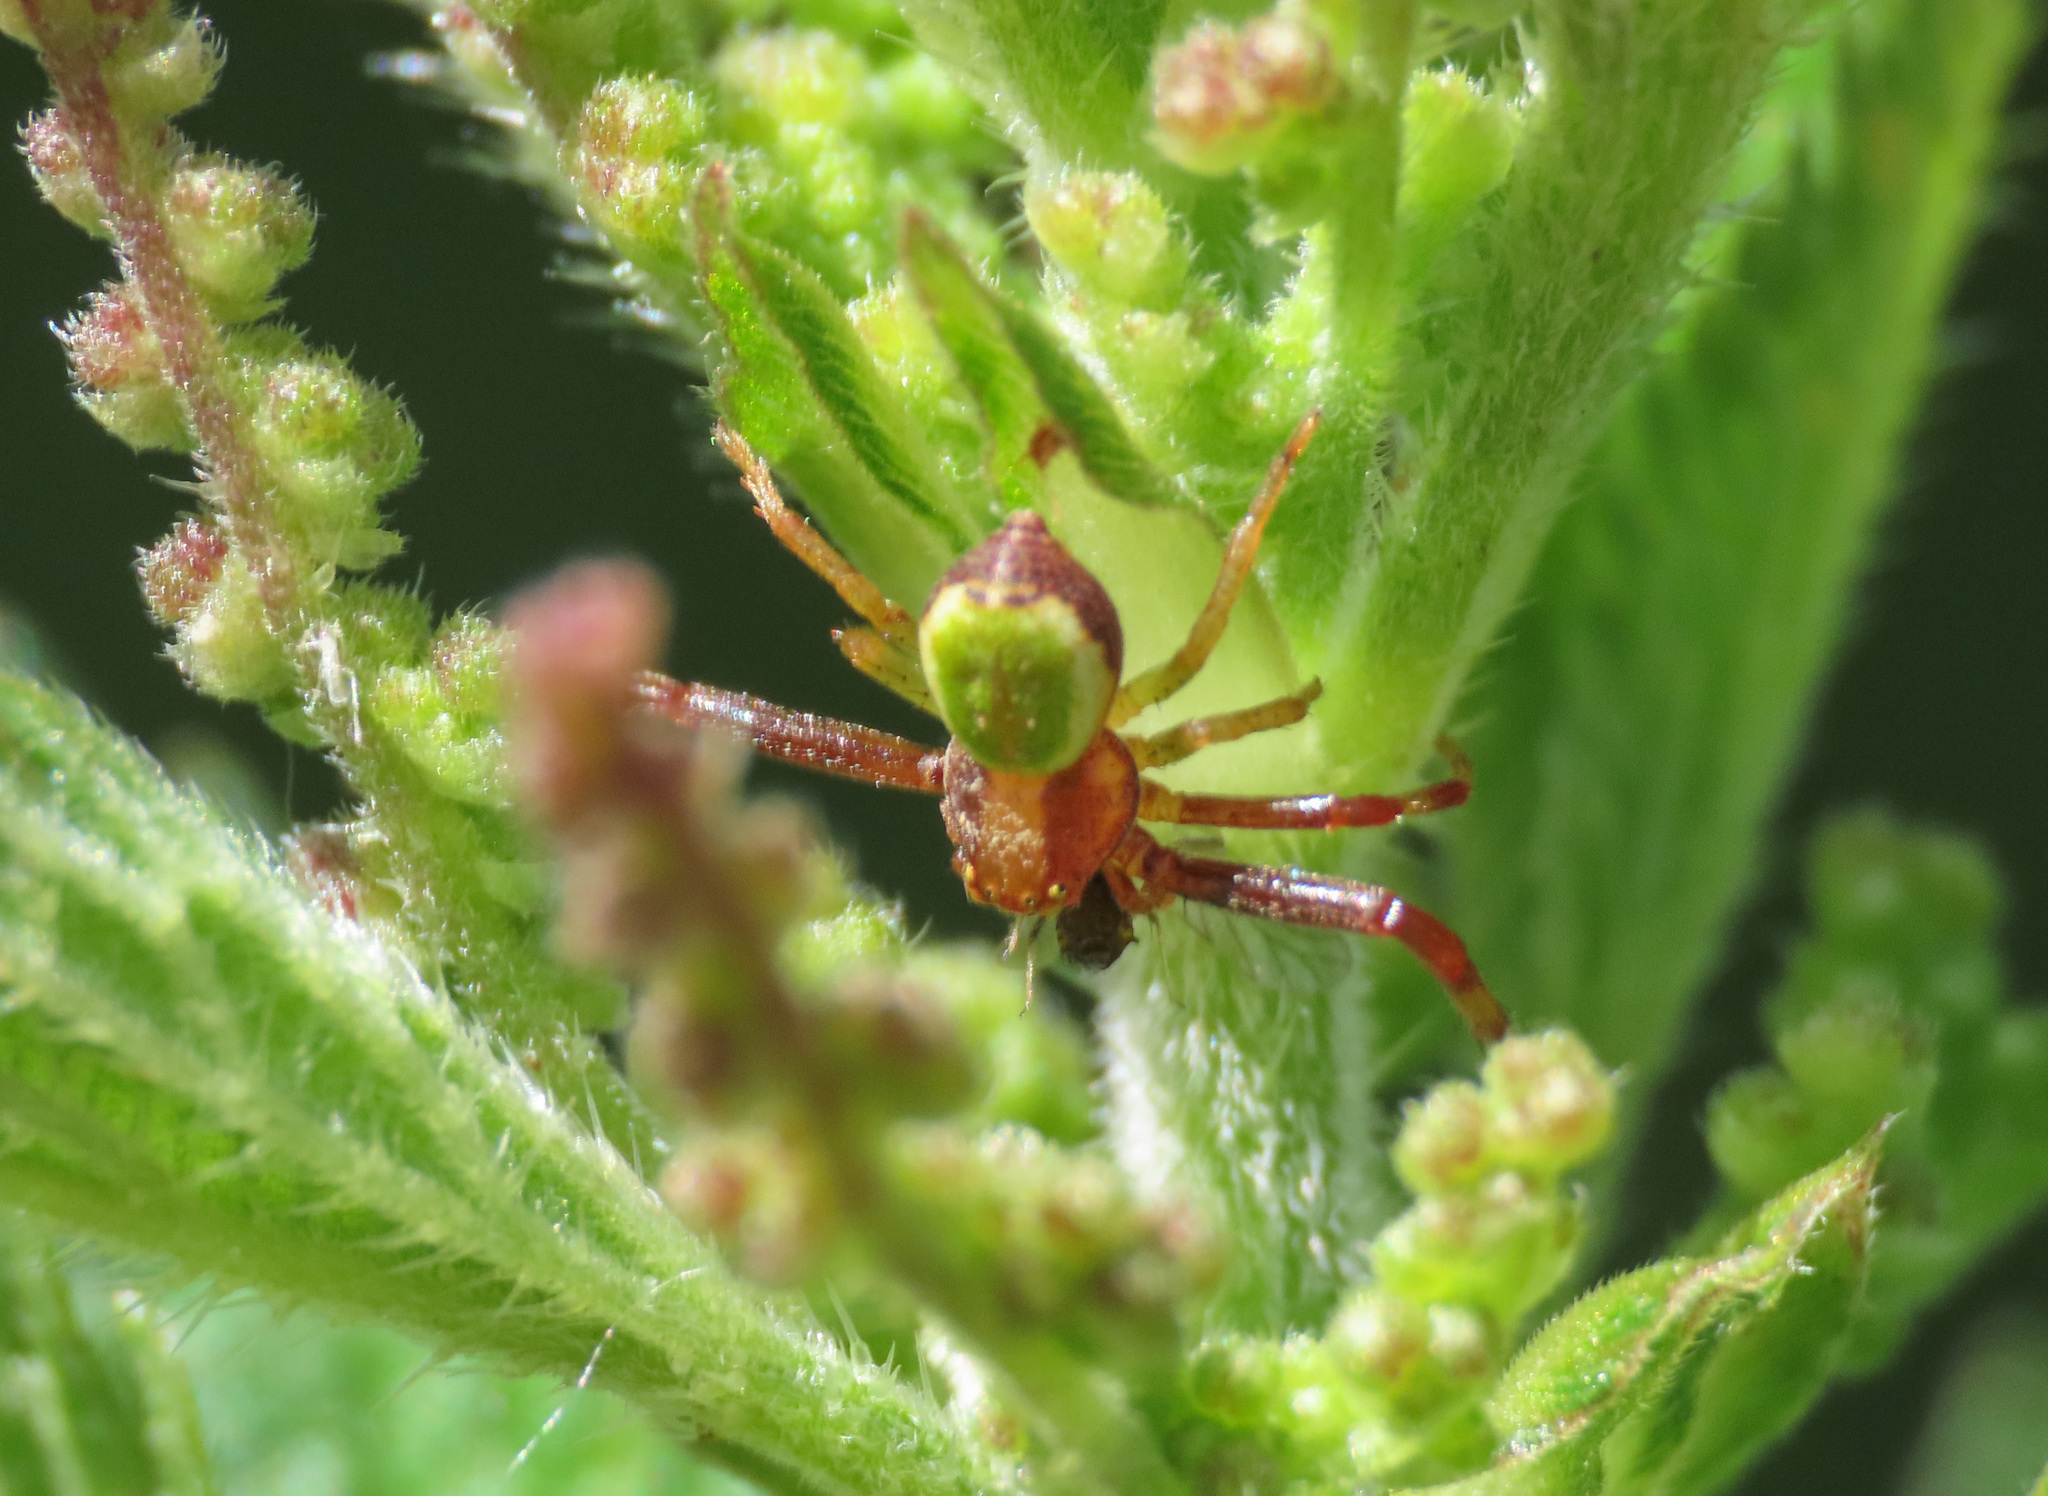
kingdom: Animalia
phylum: Arthropoda
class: Arachnida
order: Araneae
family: Thomisidae
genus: Ebrechtella
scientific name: Ebrechtella tricuspidata
